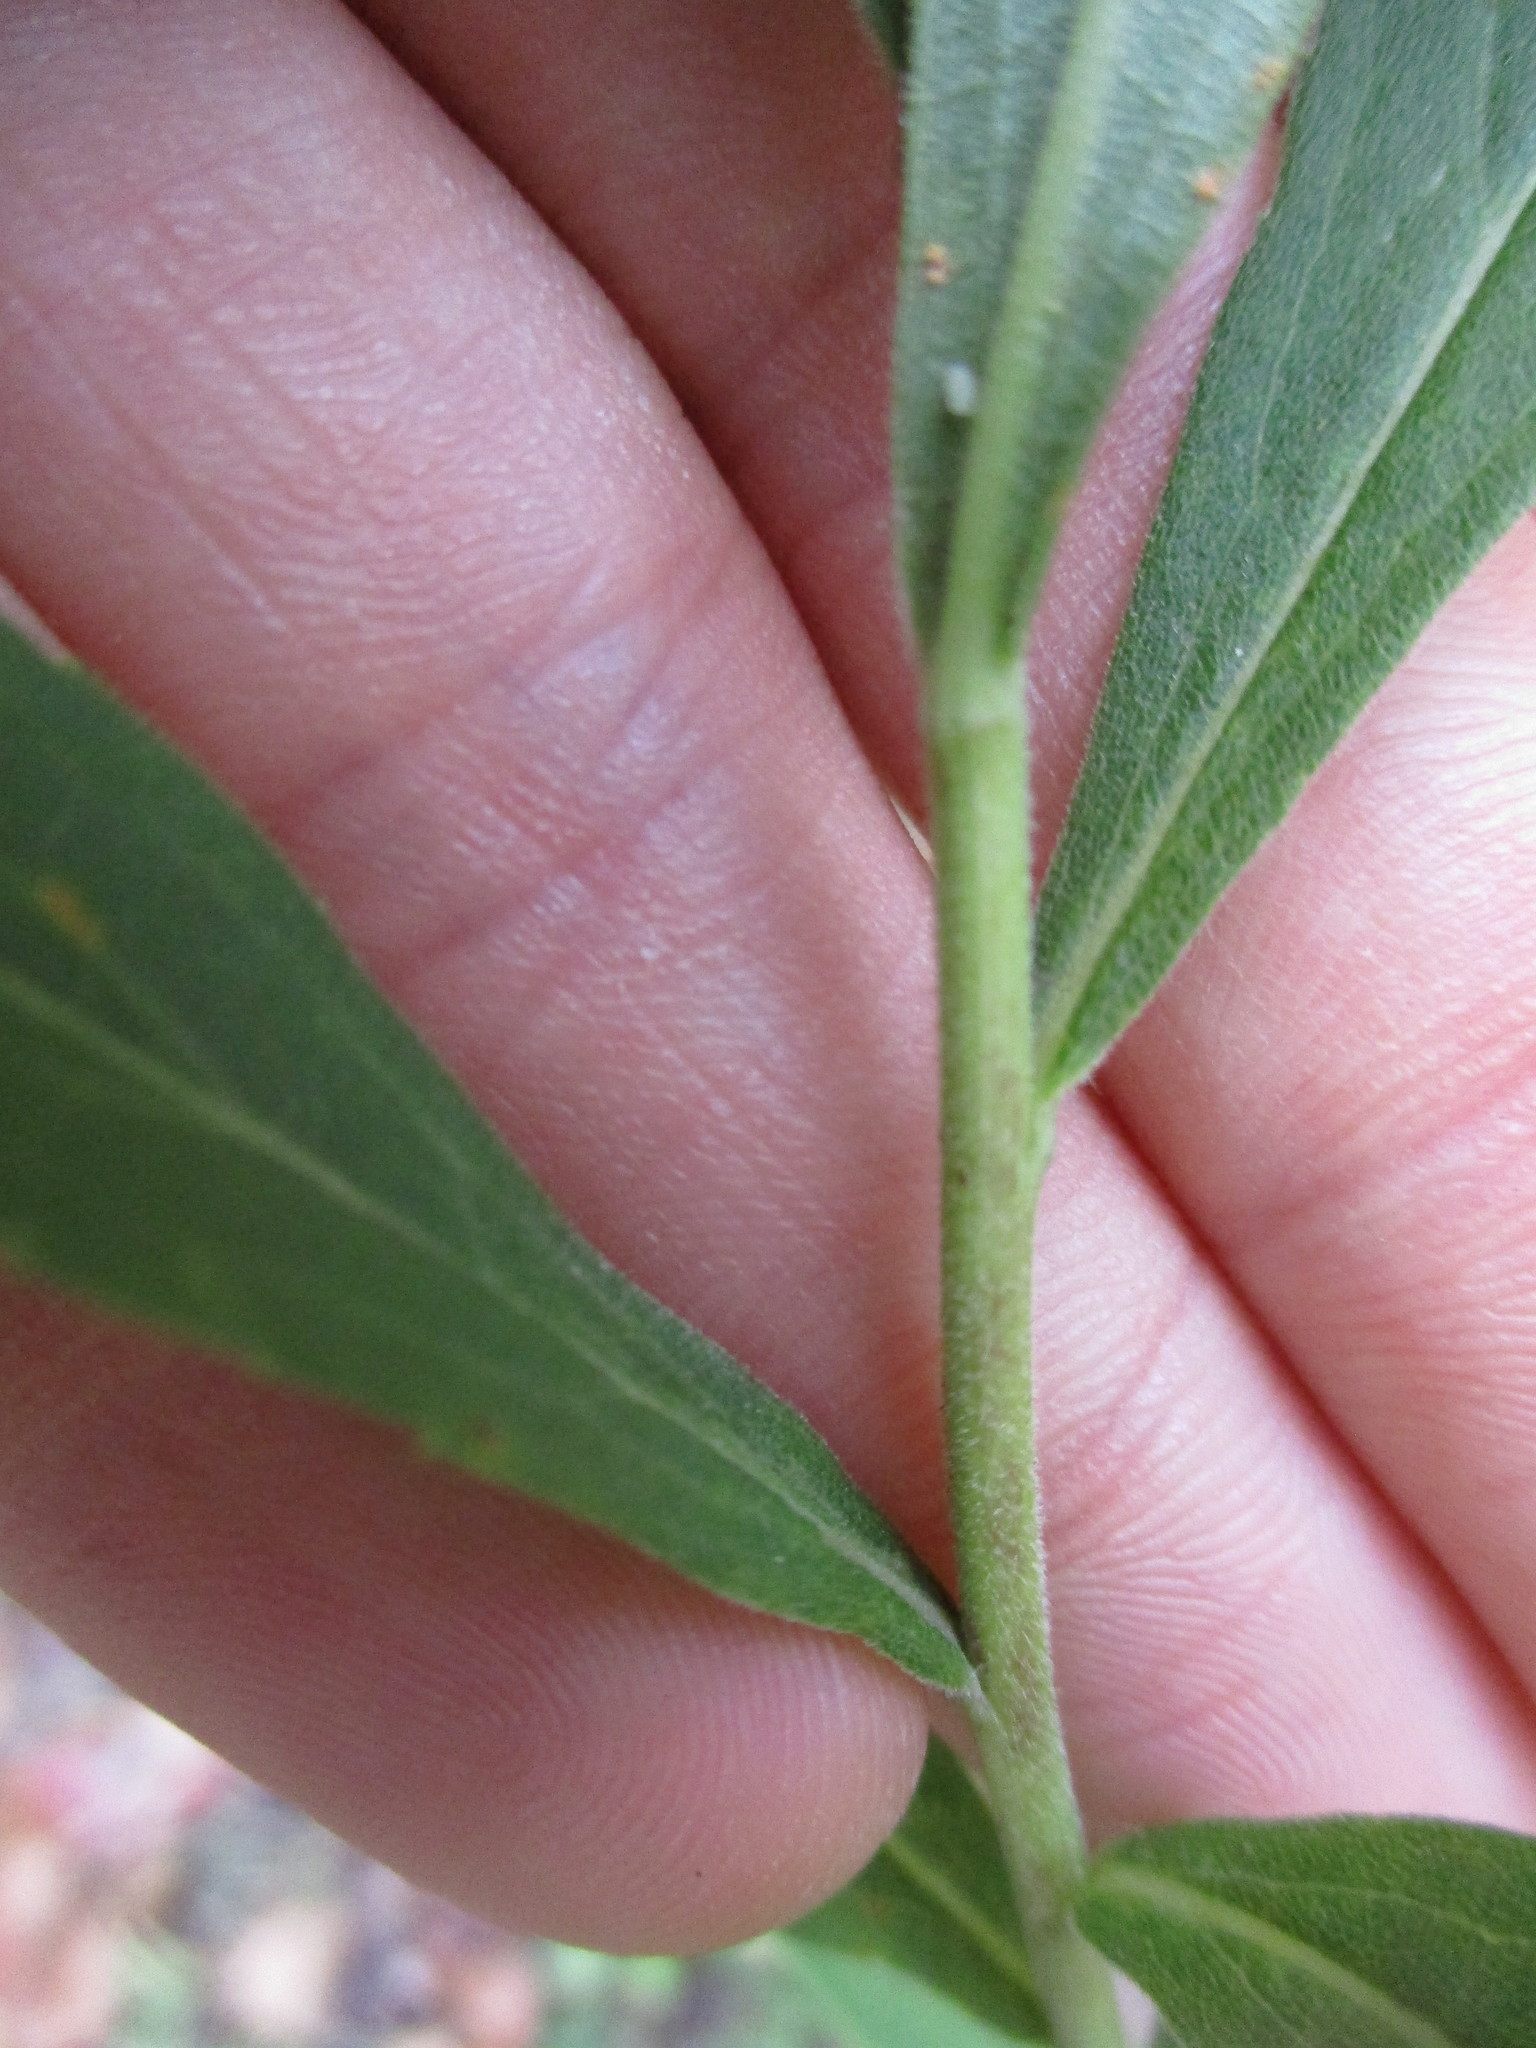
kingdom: Plantae
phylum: Tracheophyta
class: Magnoliopsida
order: Asterales
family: Asteraceae
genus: Solidago
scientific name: Solidago altissima
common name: Late goldenrod
